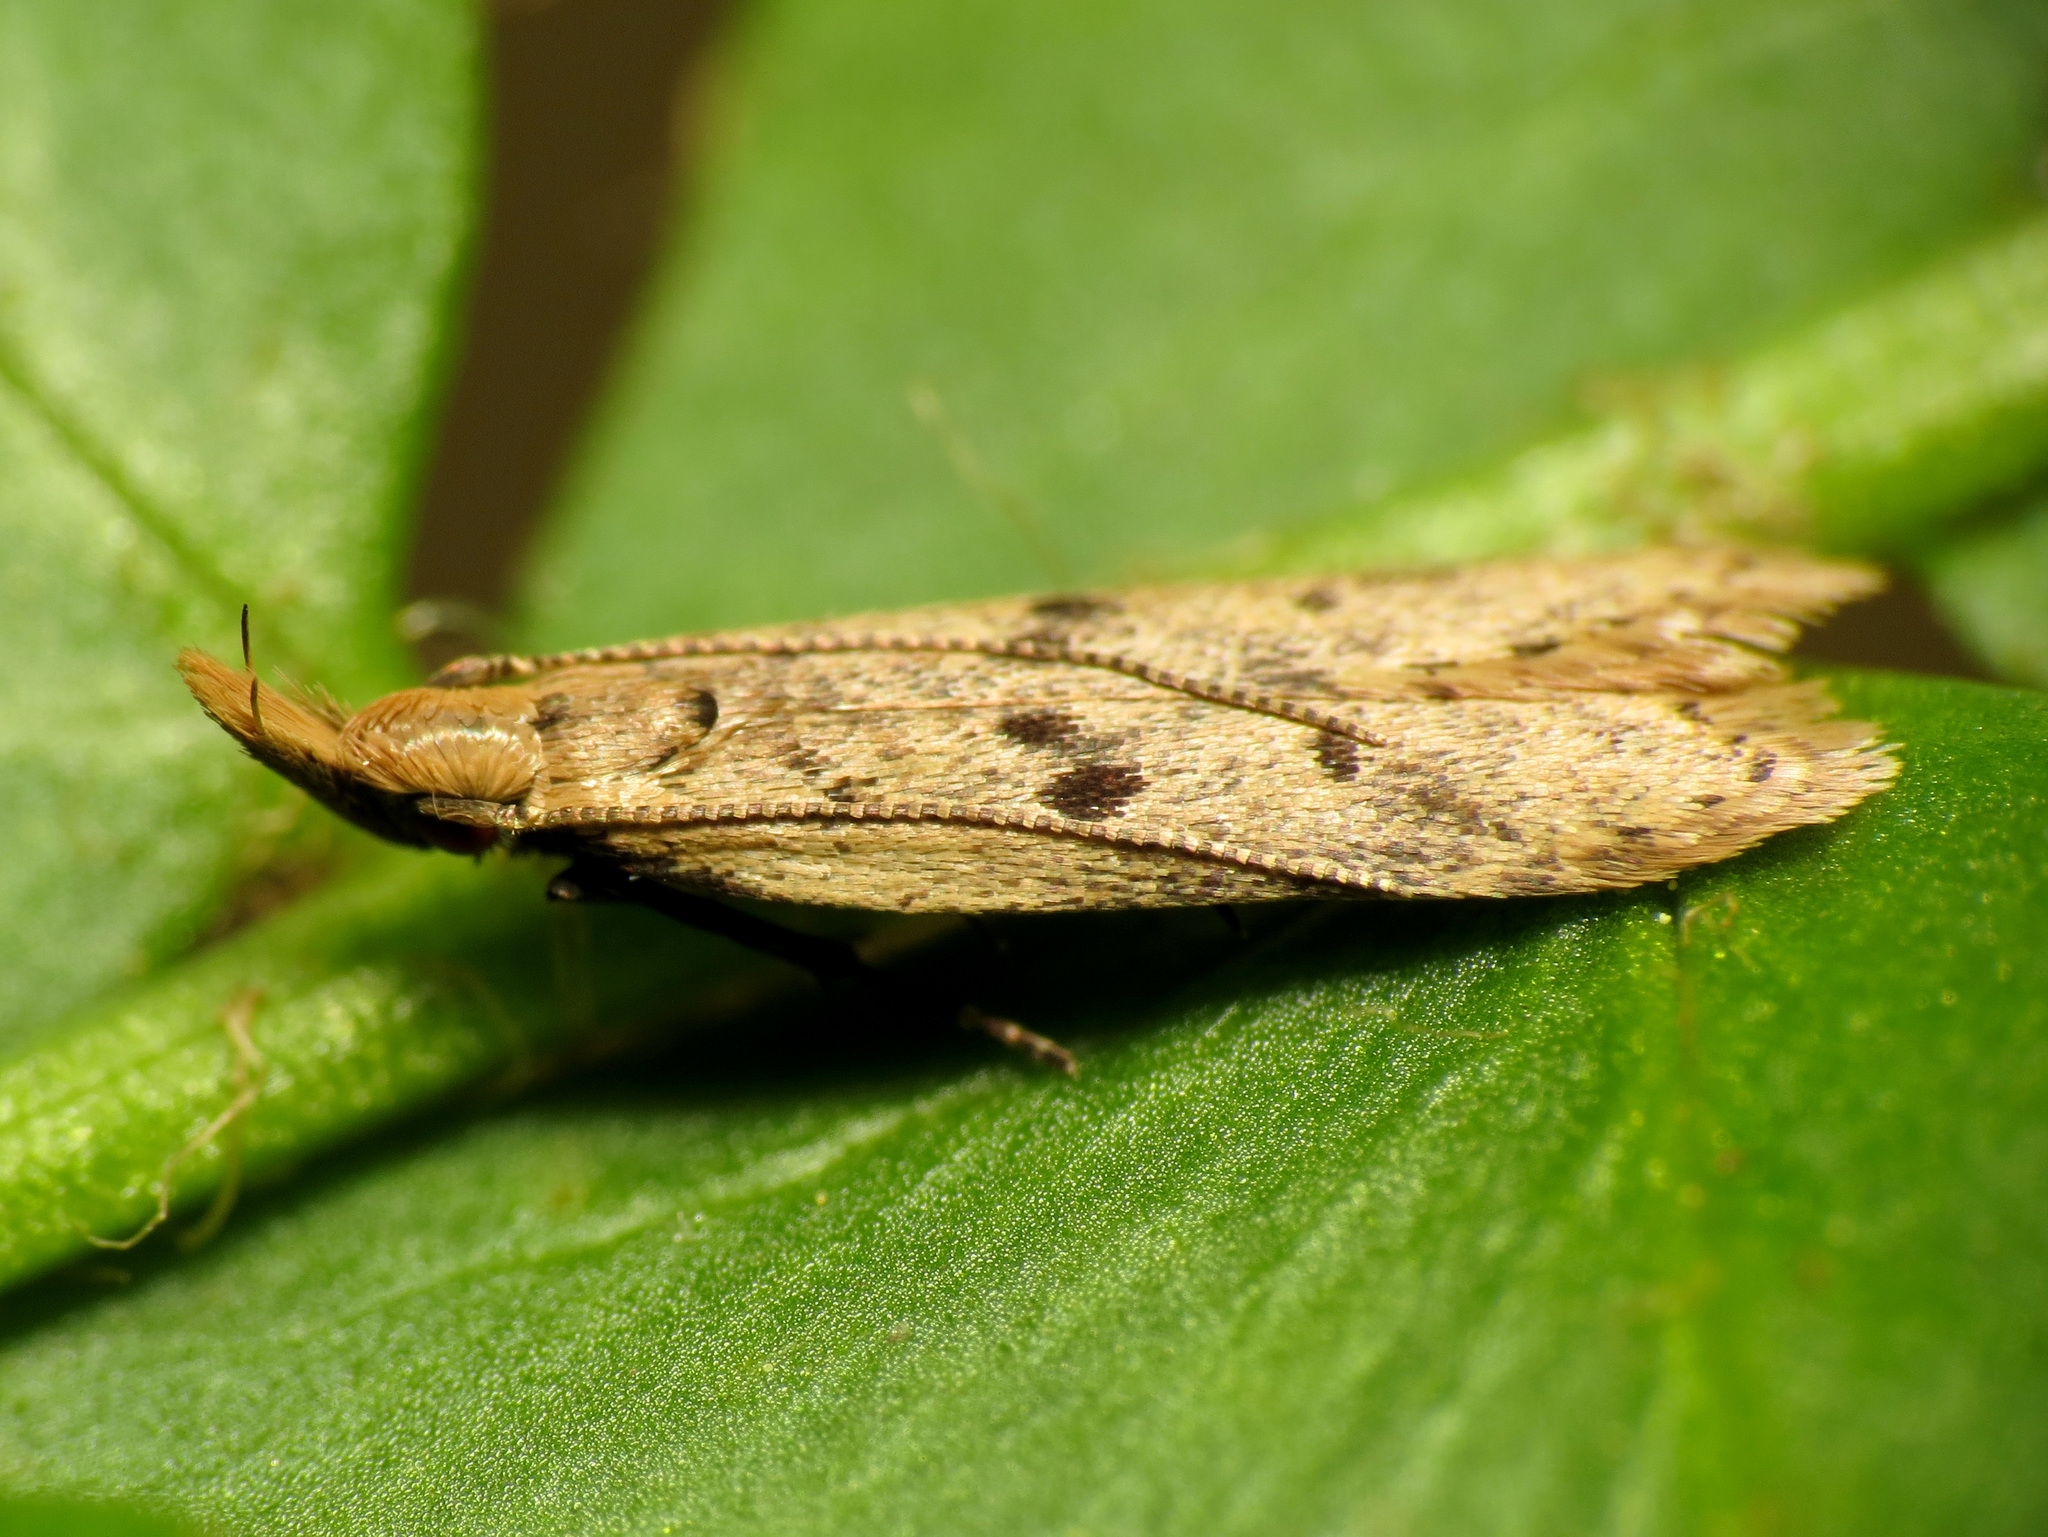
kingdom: Animalia
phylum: Arthropoda
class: Insecta
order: Lepidoptera
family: Gelechiidae
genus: Dichomeris
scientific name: Dichomeris punctipennella
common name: Many-spotted dichomeris moth
